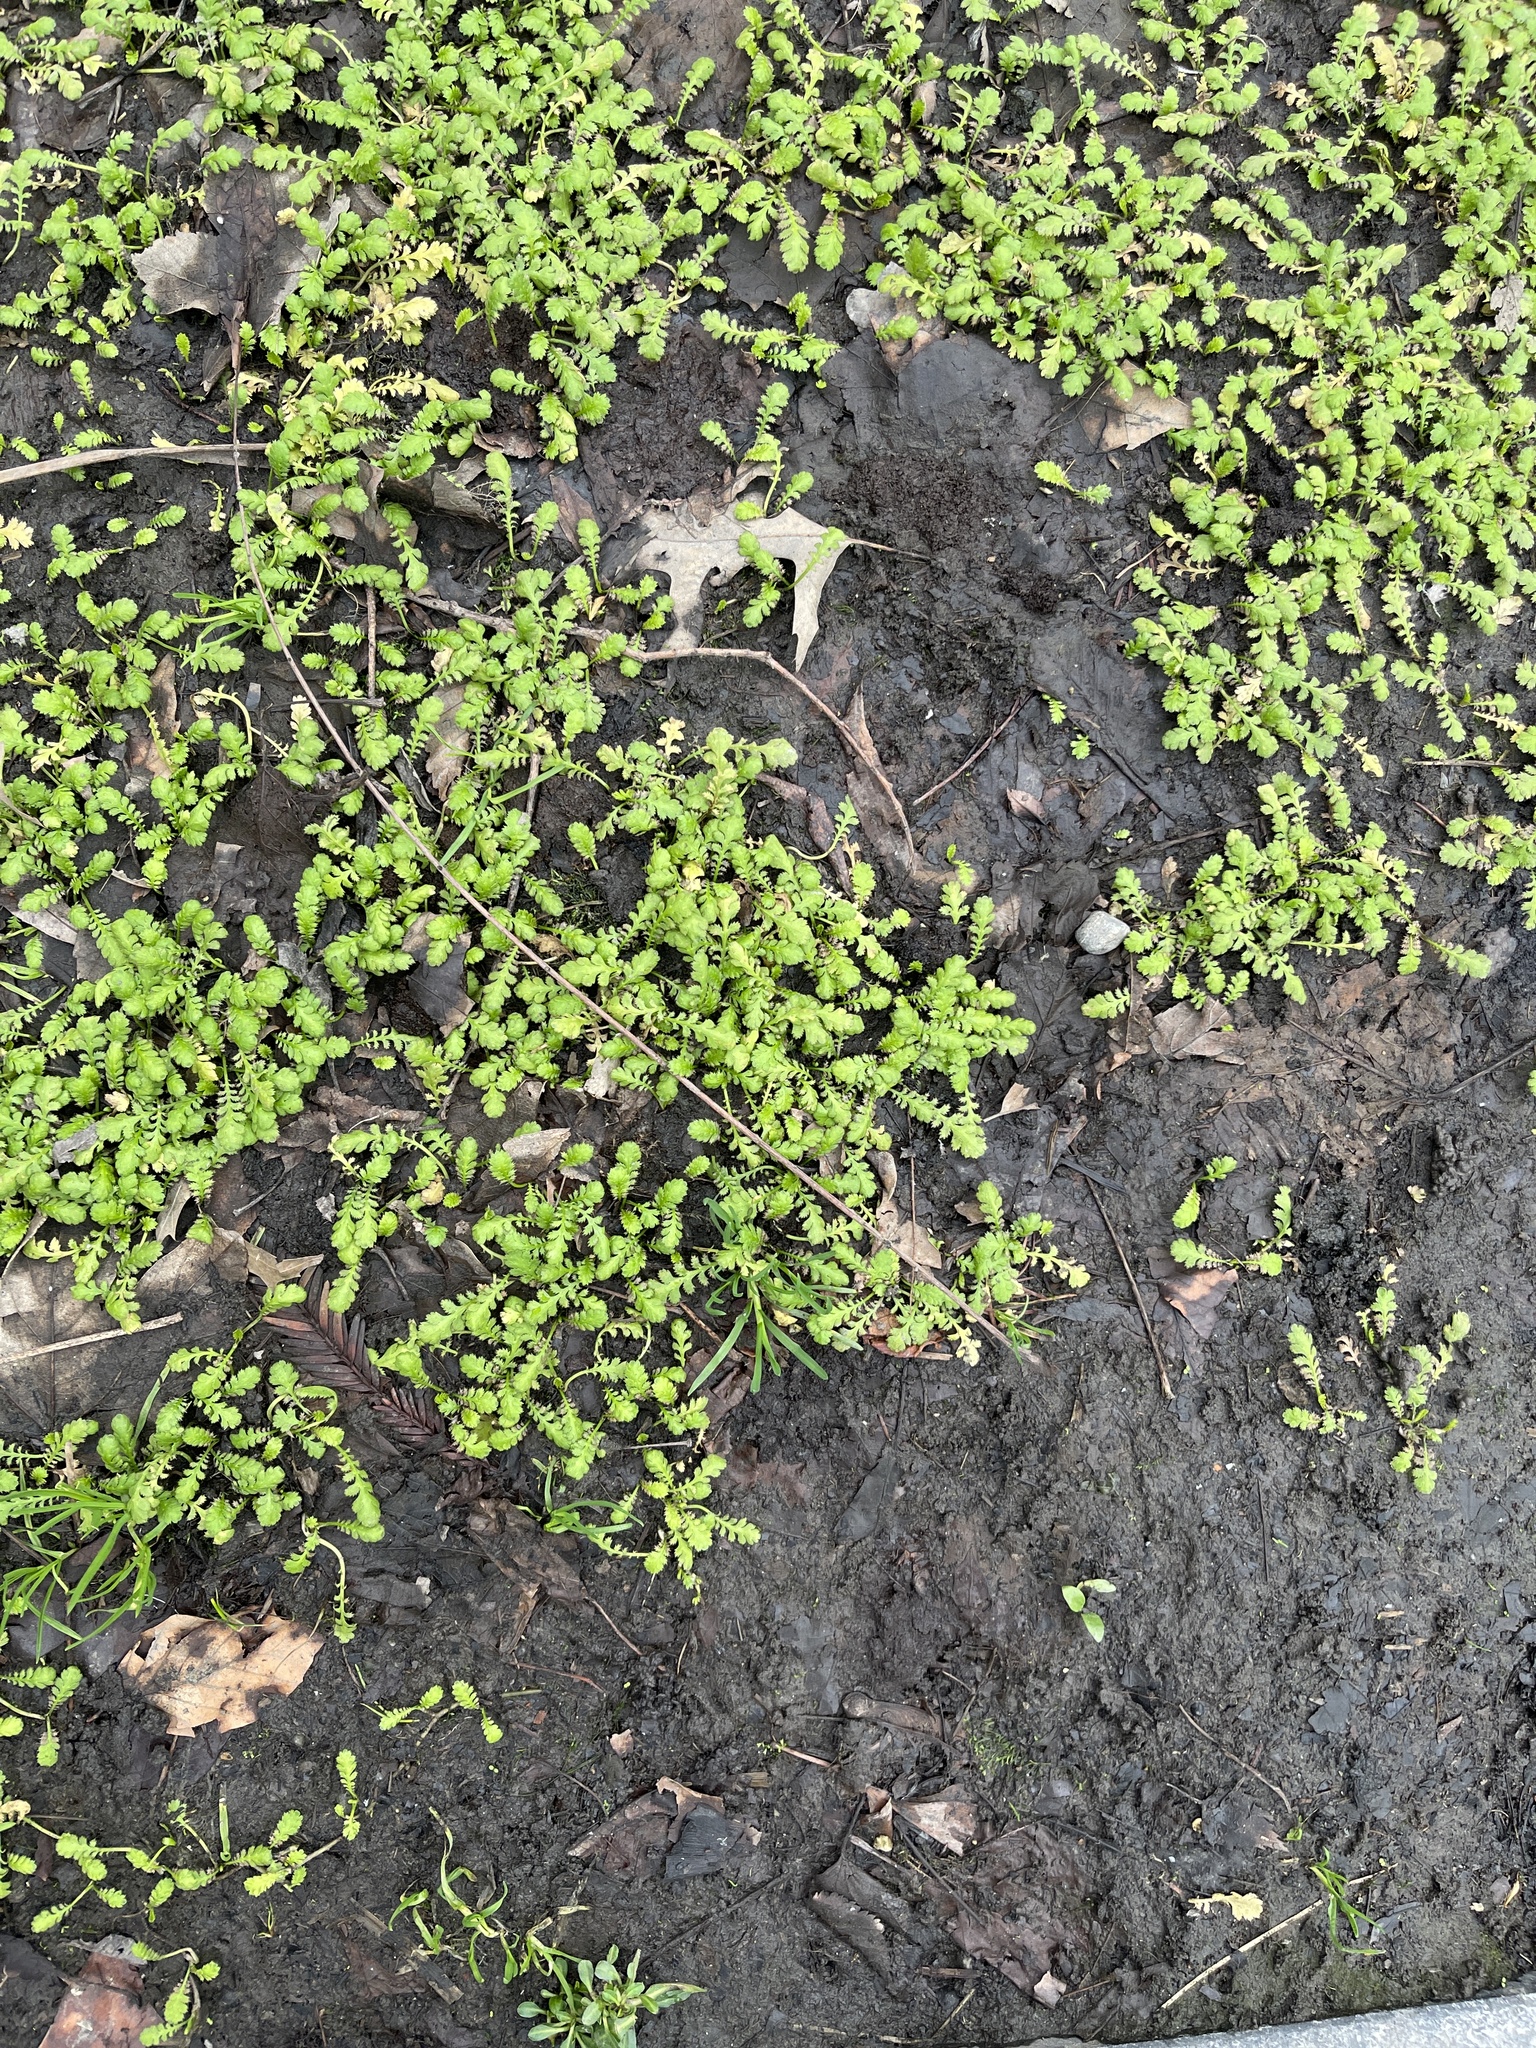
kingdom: Plantae
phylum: Tracheophyta
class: Magnoliopsida
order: Asterales
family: Asteraceae
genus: Leptinella
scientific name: Leptinella squalida
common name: New zealand brass-buttons
